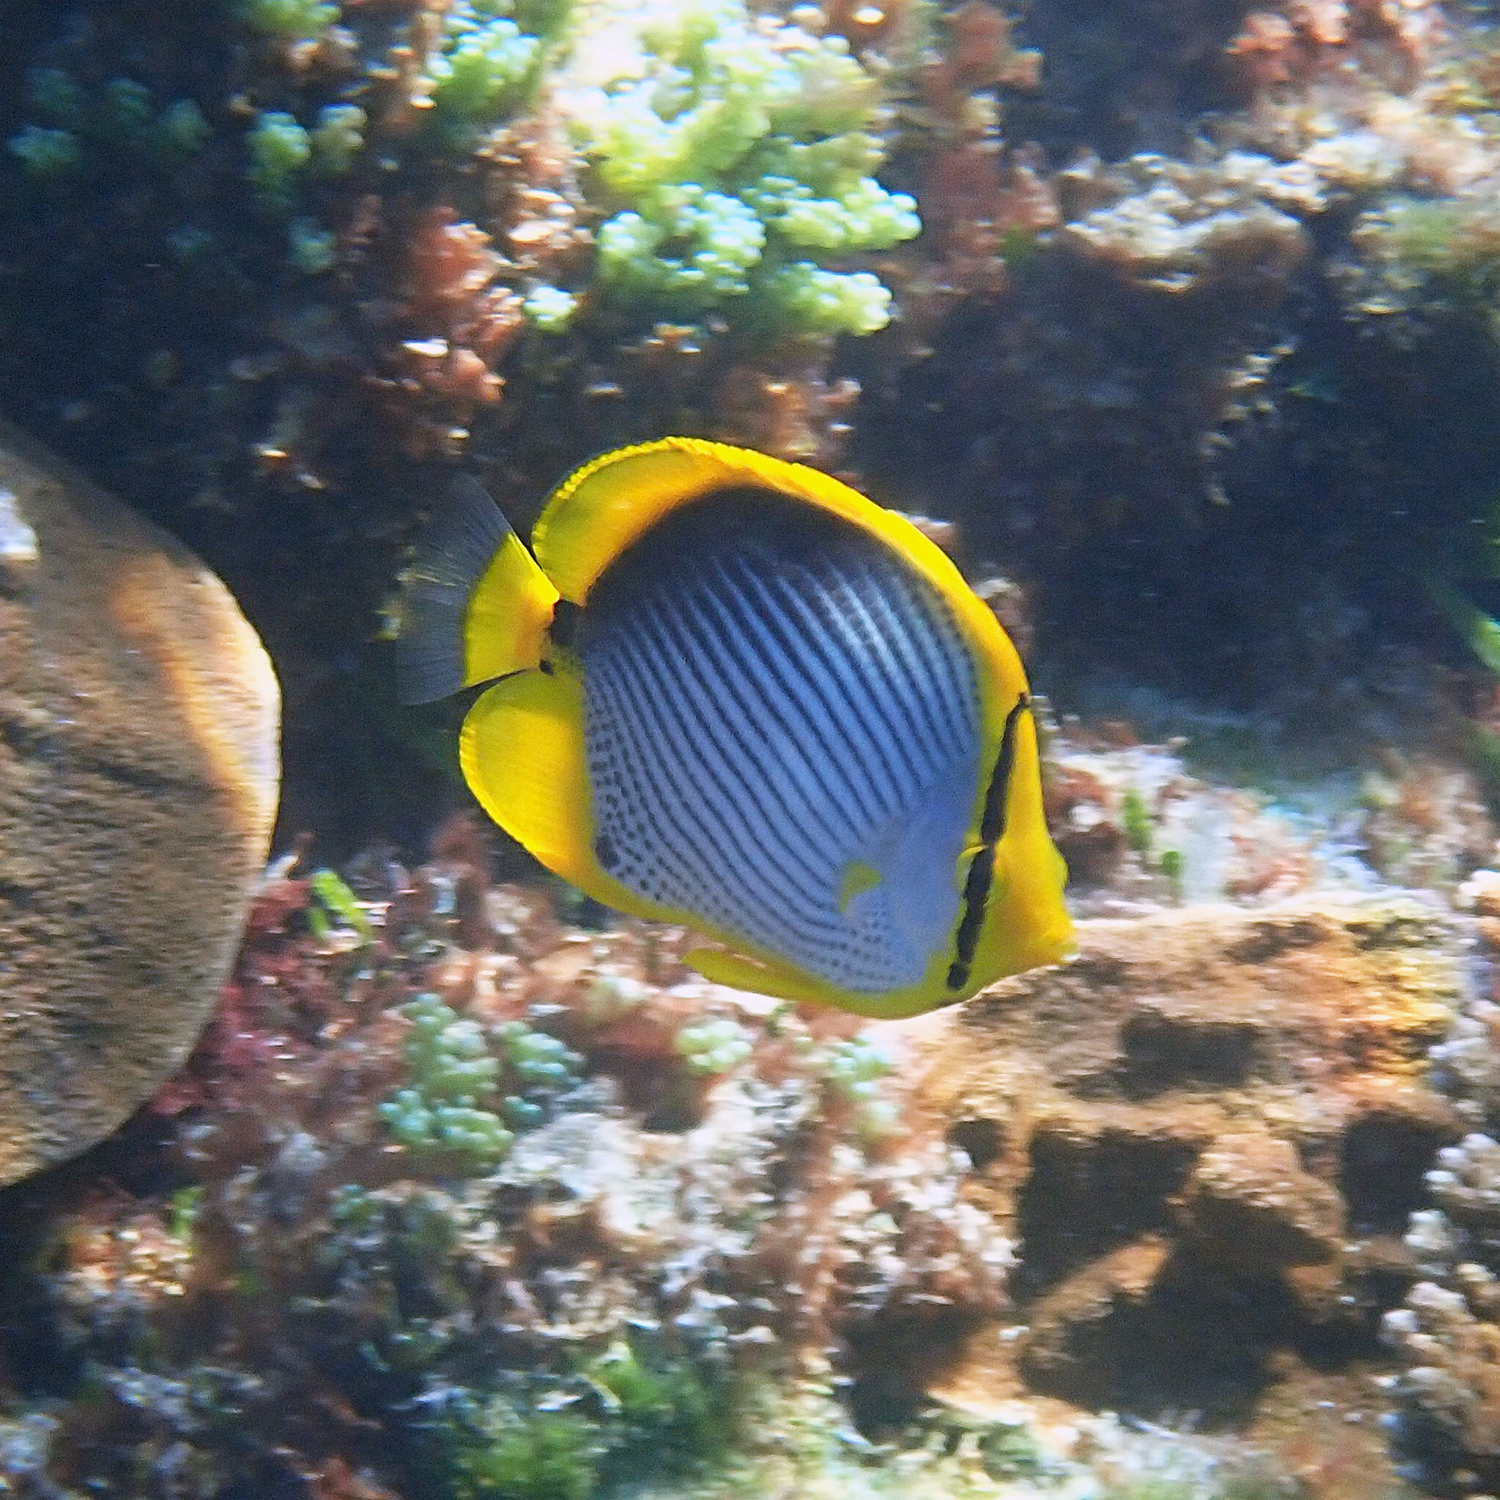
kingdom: Animalia
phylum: Chordata
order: Perciformes
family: Chaetodontidae
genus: Chaetodon
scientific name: Chaetodon melannotus
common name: Blackback butterflyfish
